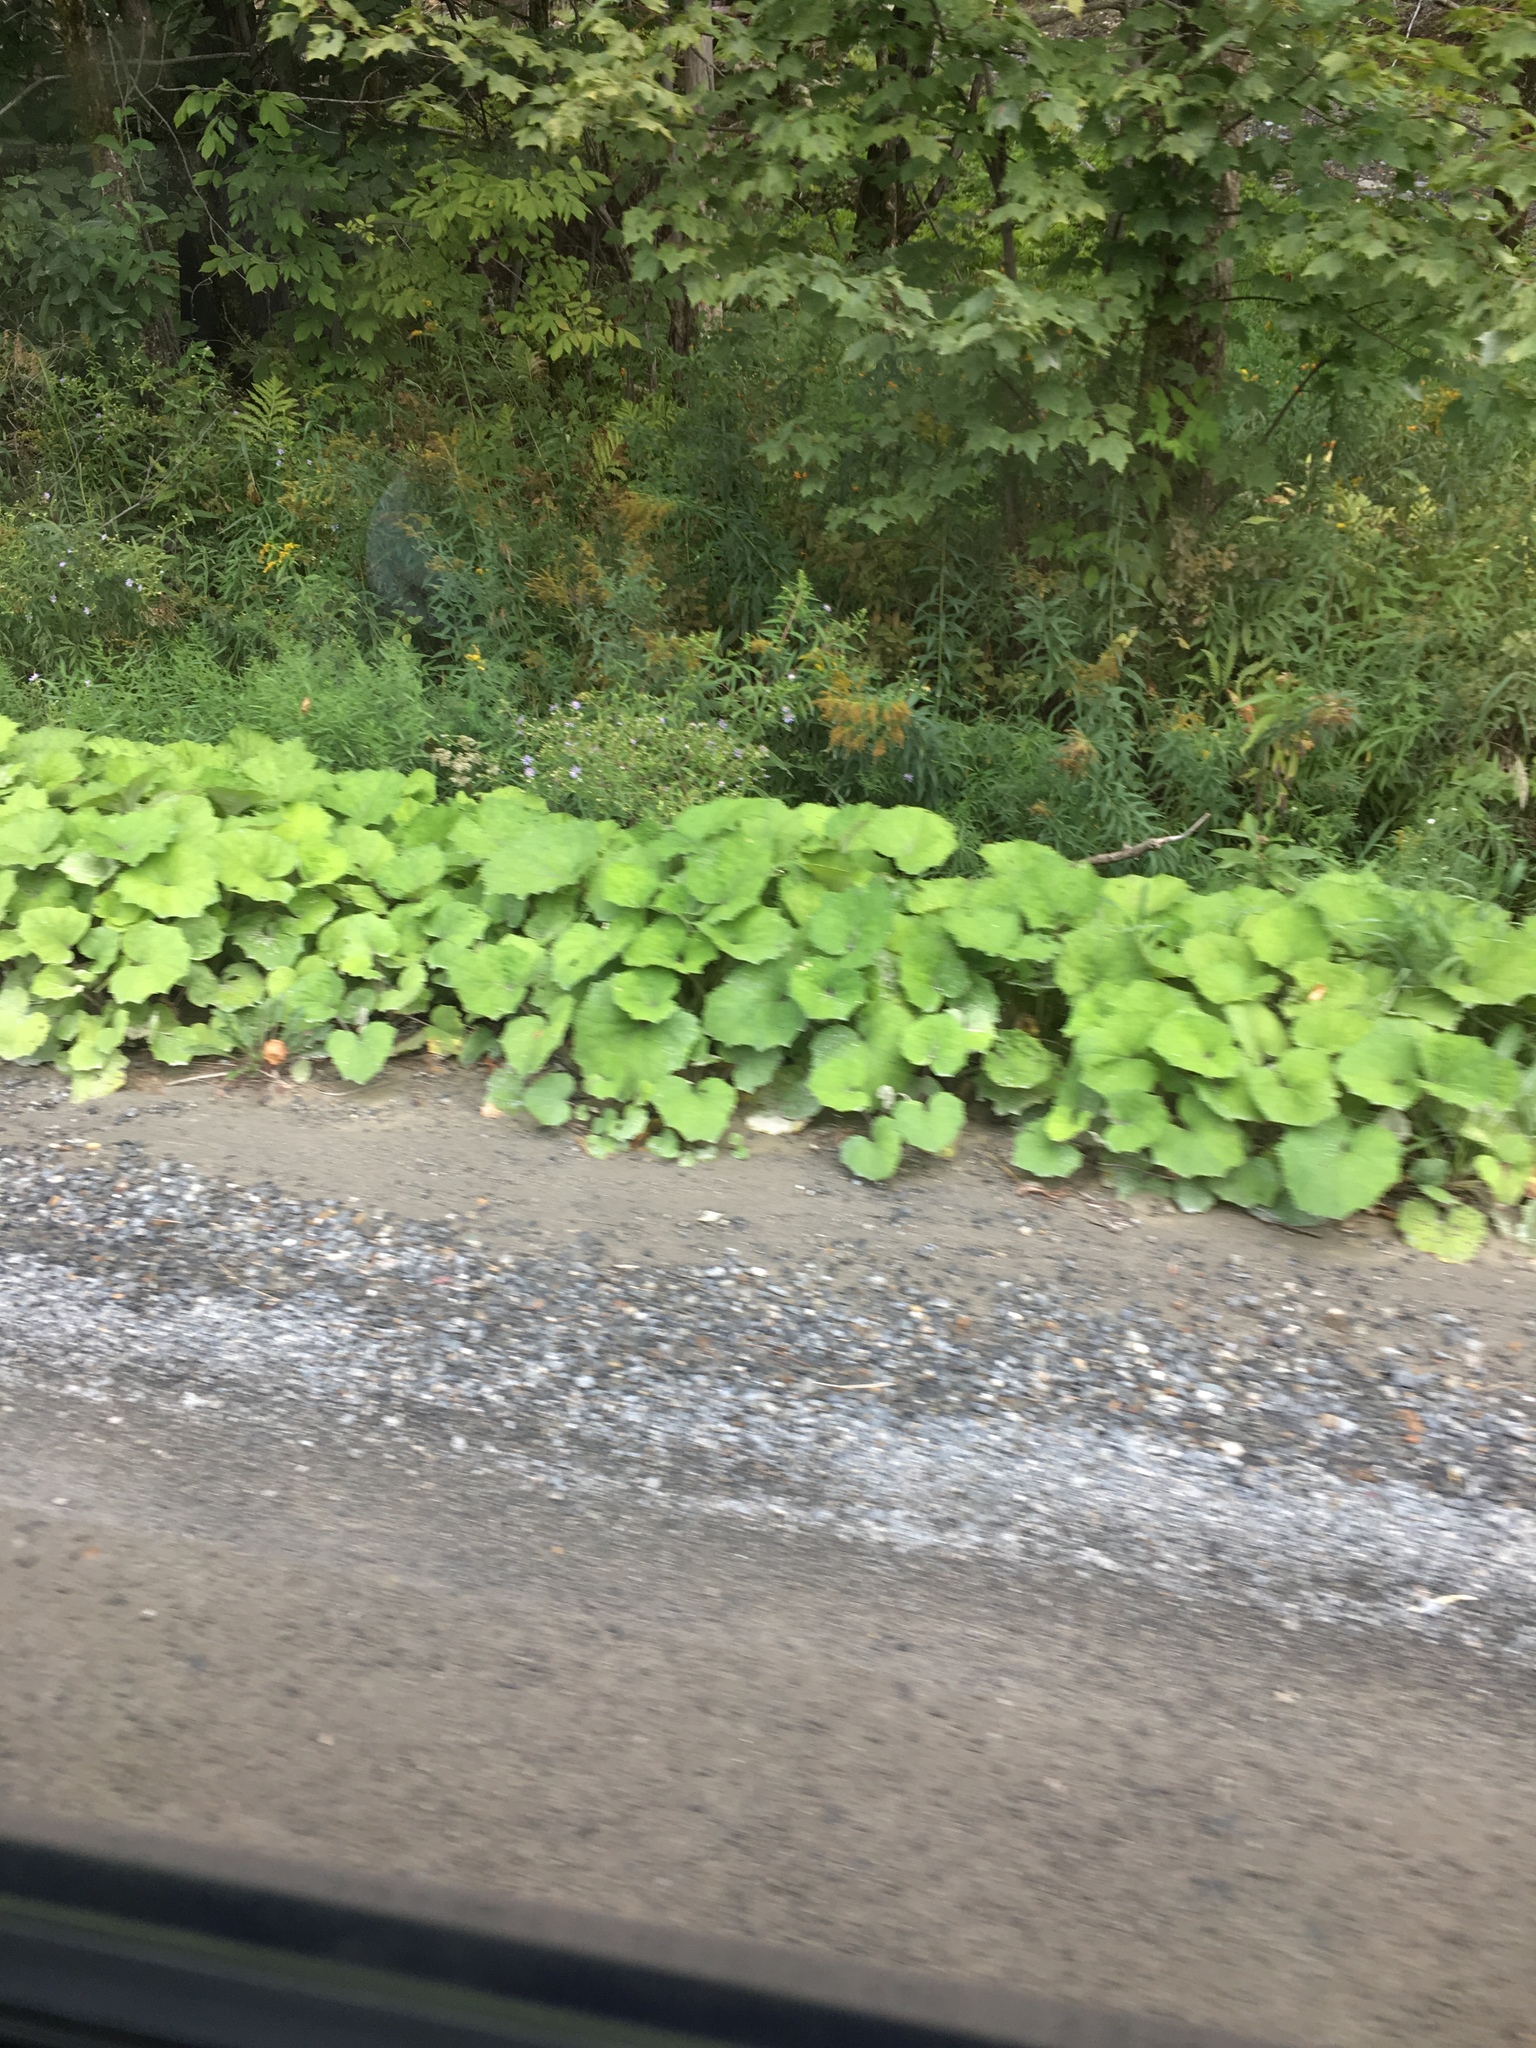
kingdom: Plantae
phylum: Tracheophyta
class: Magnoliopsida
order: Asterales
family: Asteraceae
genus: Tussilago
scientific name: Tussilago farfara
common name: Coltsfoot
